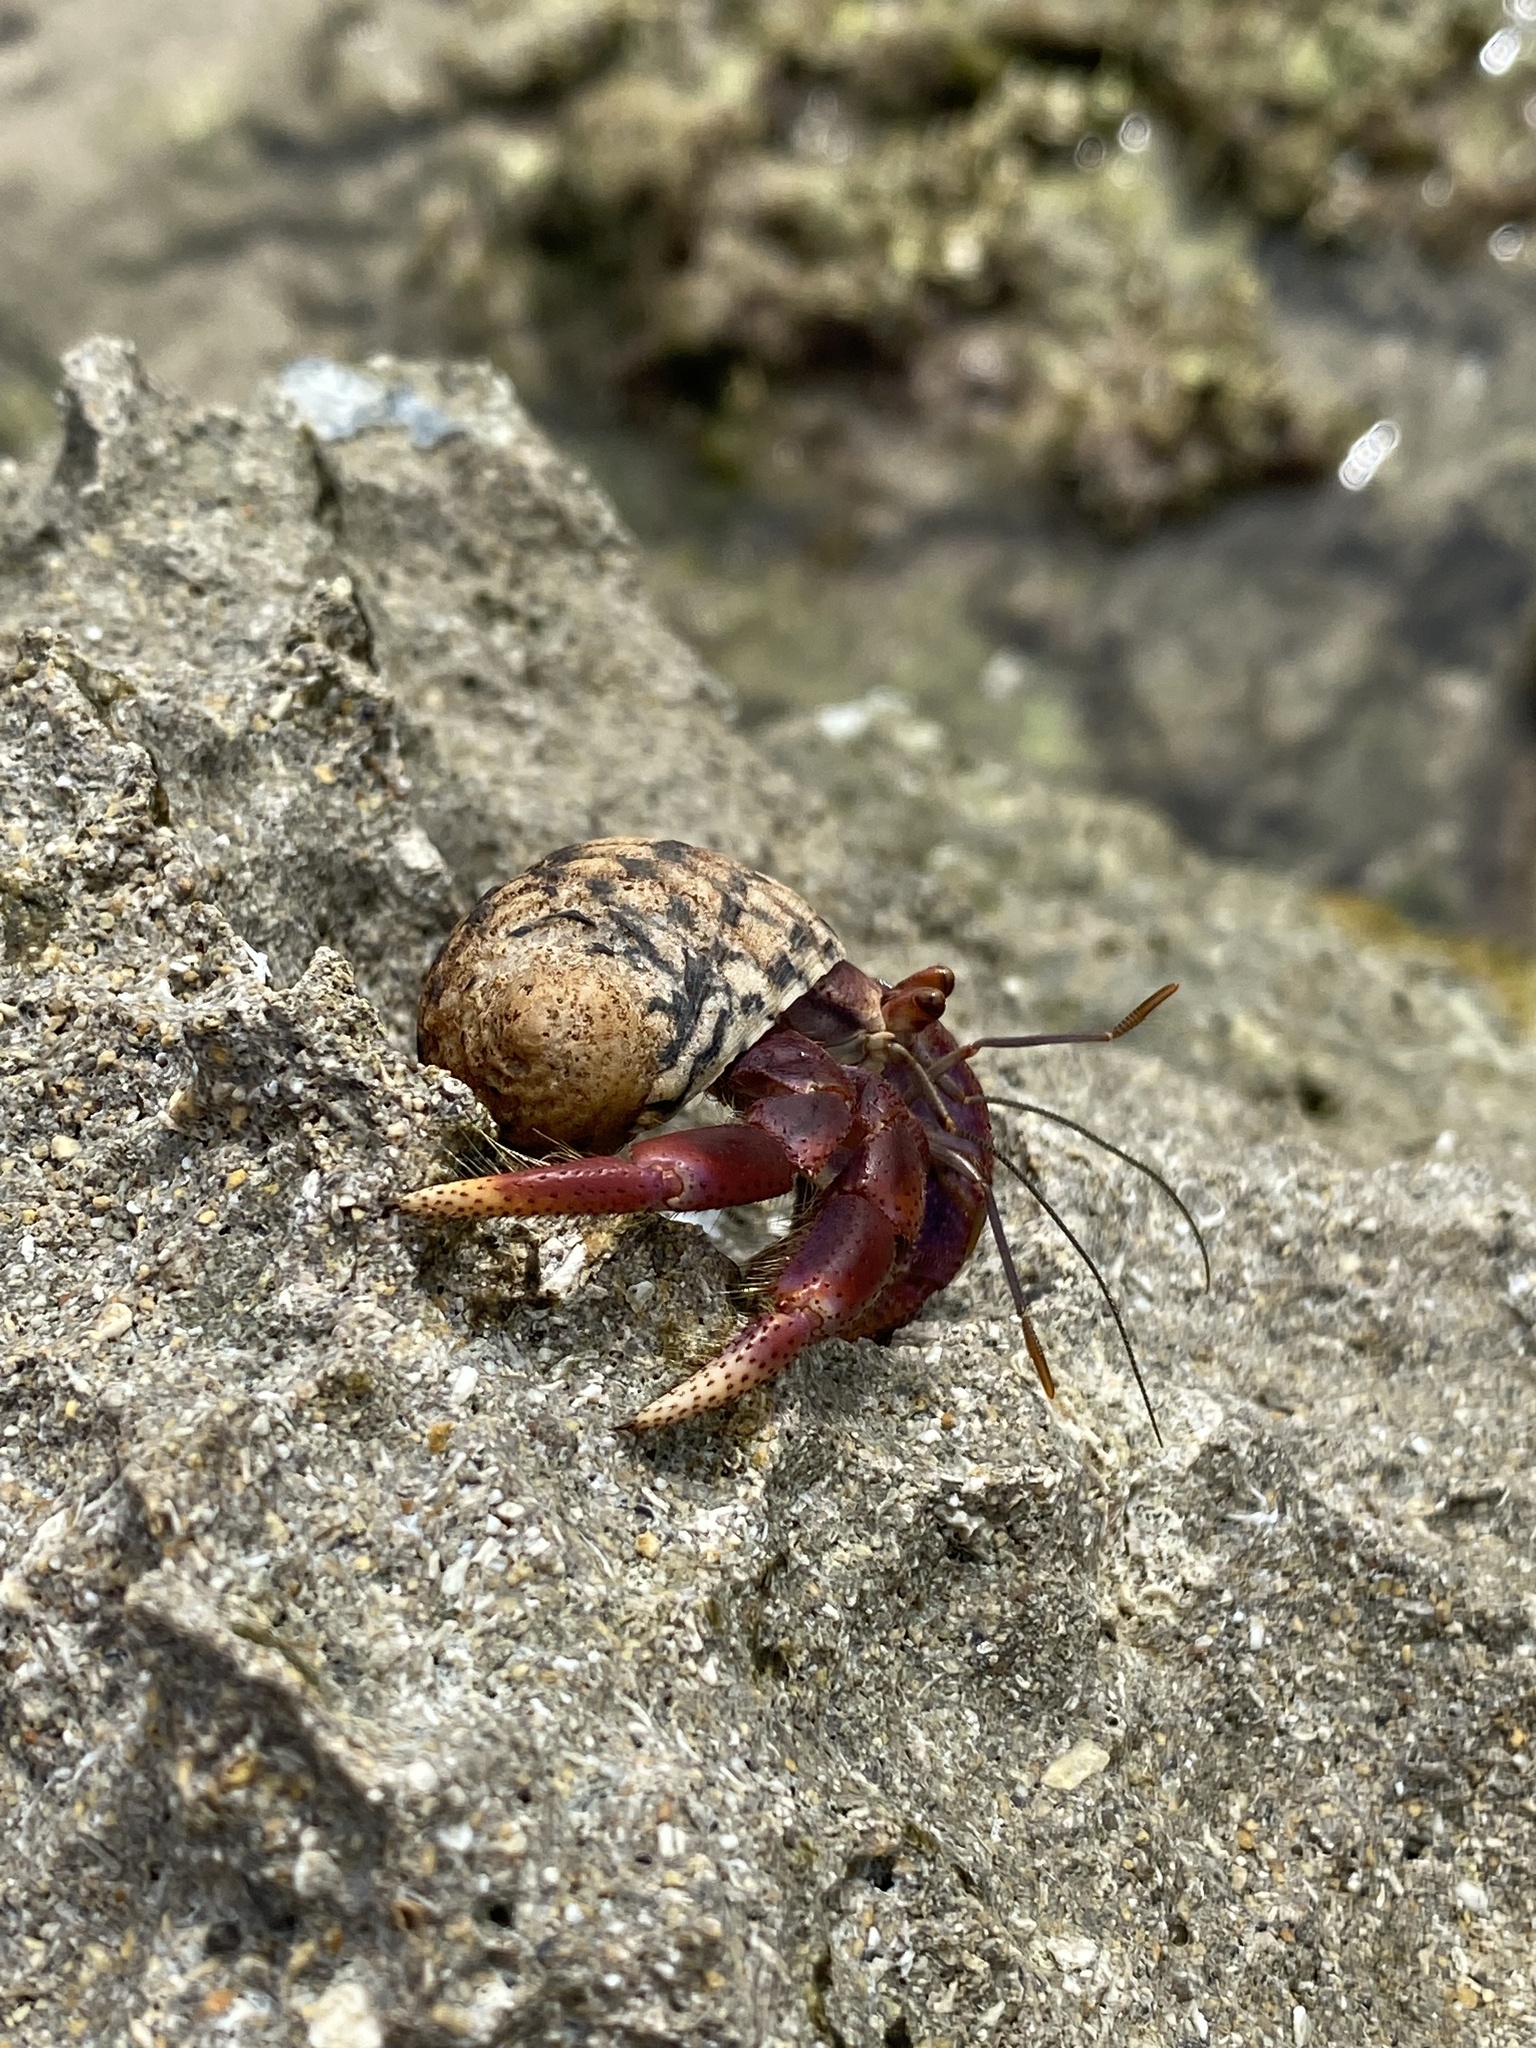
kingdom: Animalia
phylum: Arthropoda
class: Malacostraca
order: Decapoda
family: Coenobitidae
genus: Coenobita
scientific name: Coenobita clypeatus
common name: Caribbean hermit crab
